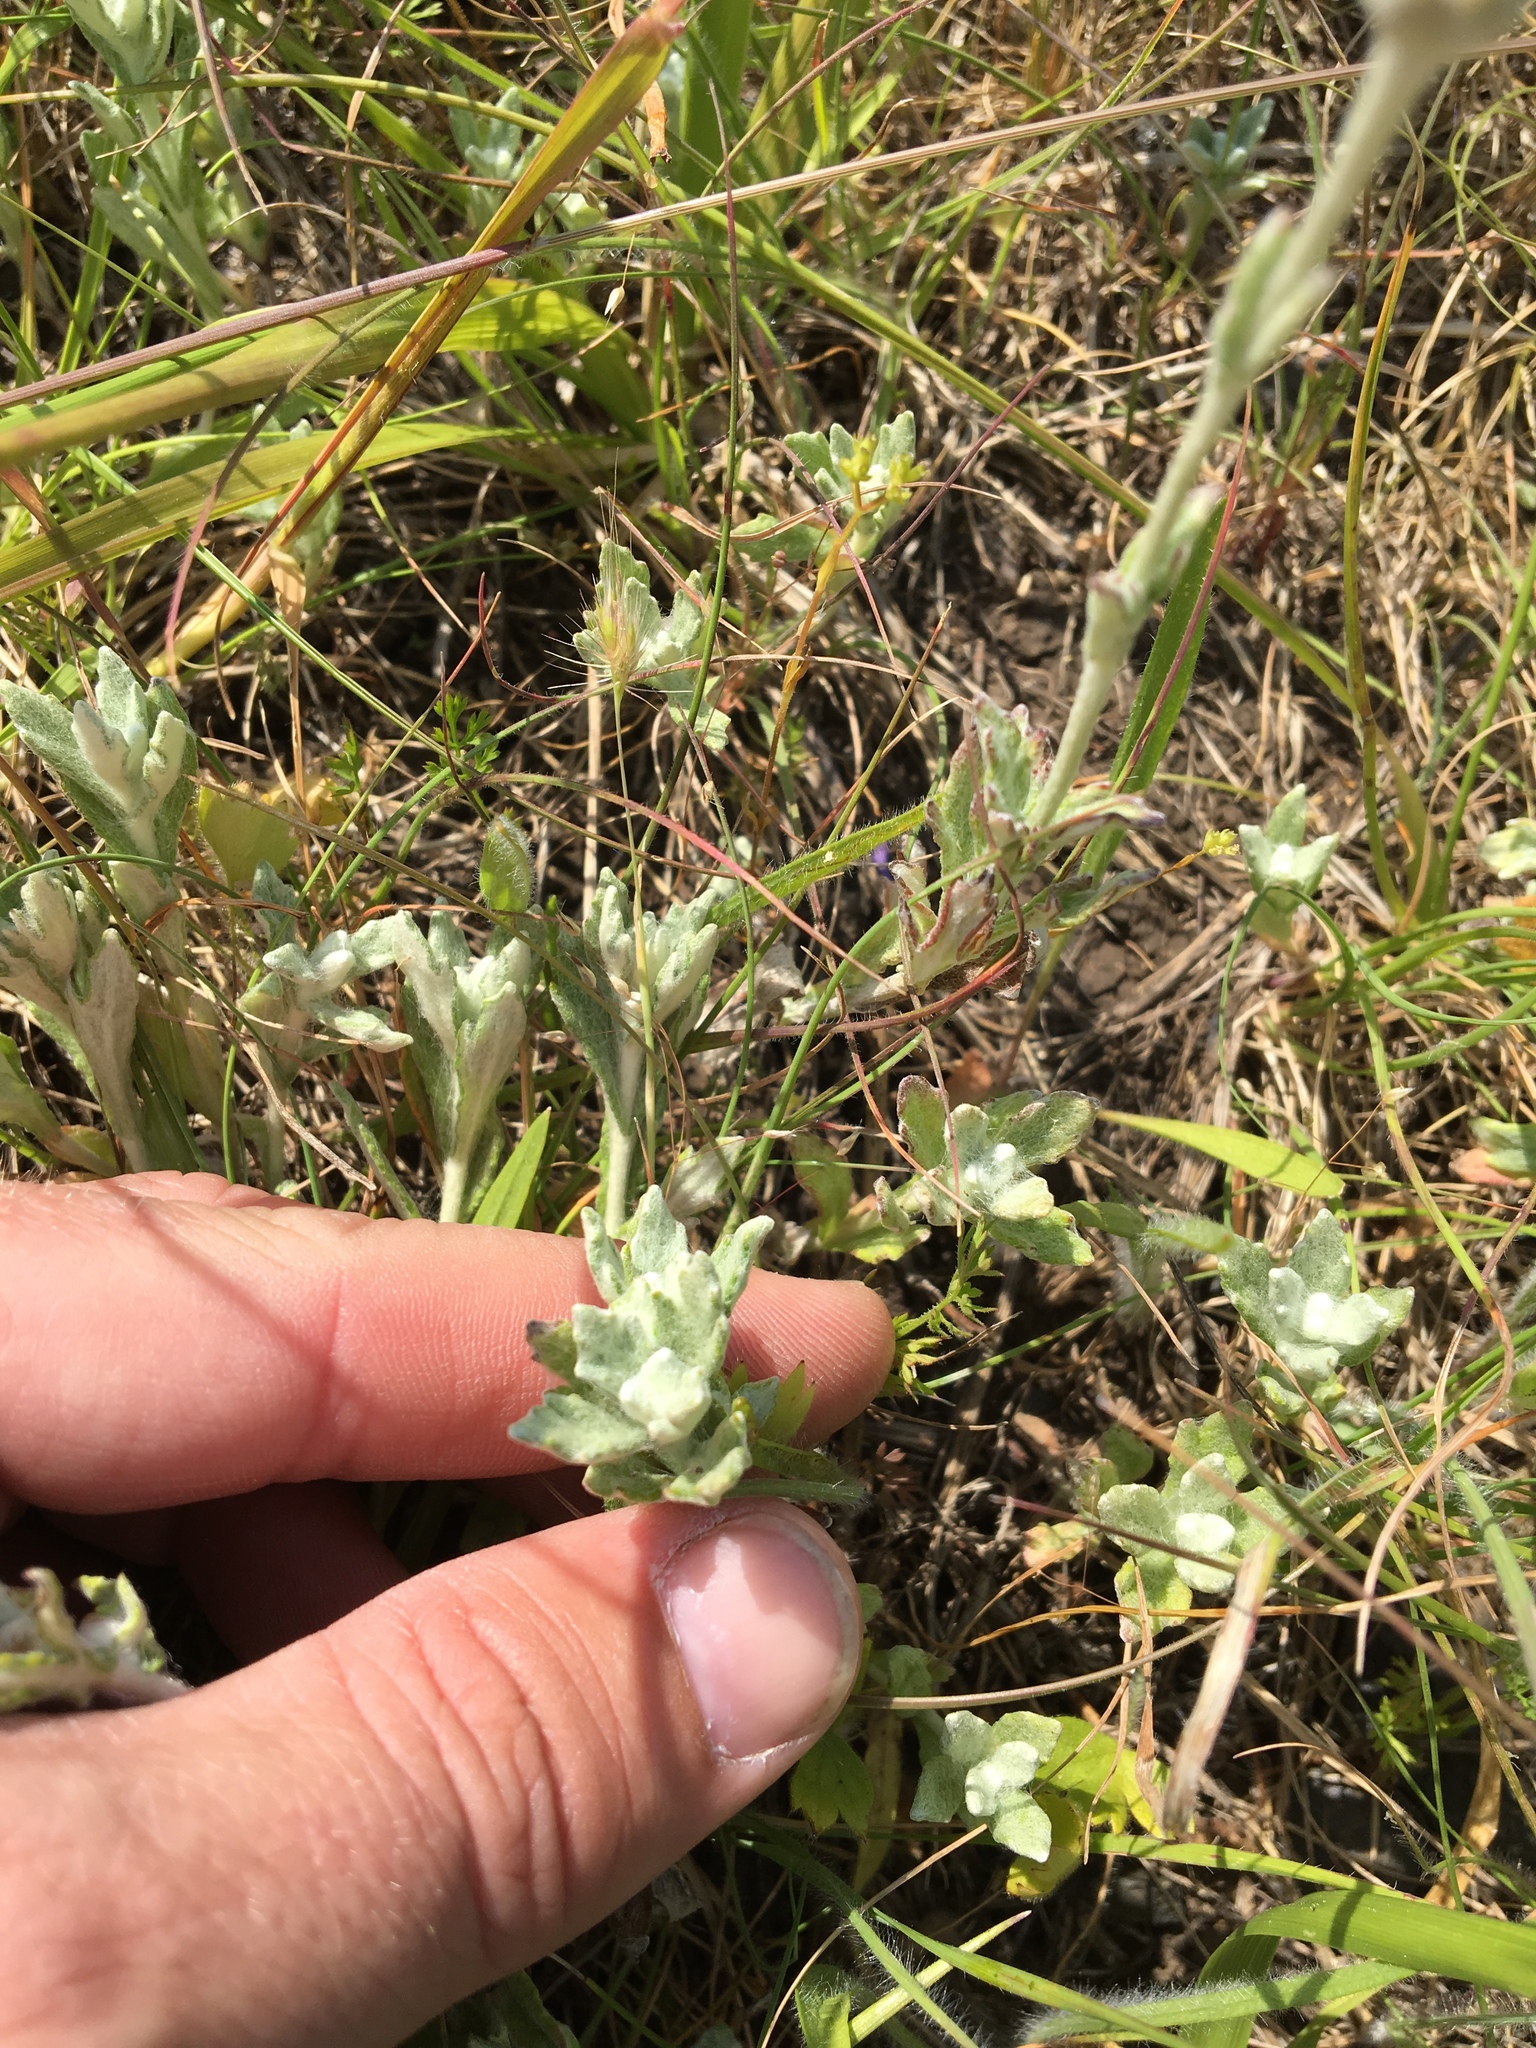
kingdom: Plantae
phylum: Tracheophyta
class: Magnoliopsida
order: Asterales
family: Asteraceae
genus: Eriophyllum
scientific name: Eriophyllum lanatum
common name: Common woolly-sunflower
